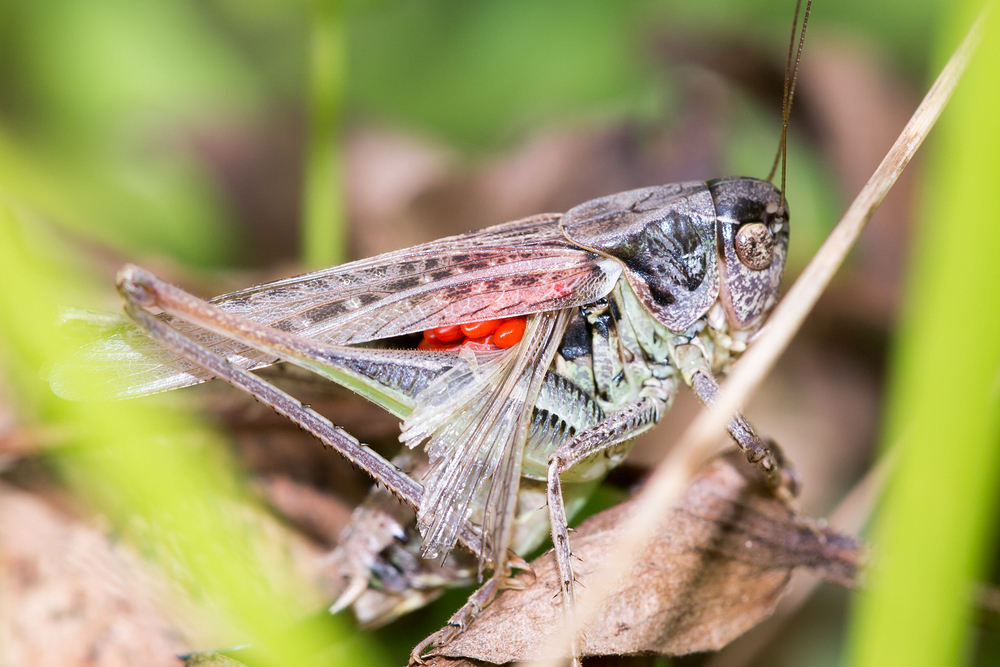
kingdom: Animalia
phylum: Arthropoda
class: Insecta
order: Orthoptera
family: Tettigoniidae
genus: Platycleis
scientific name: Platycleis albopunctata
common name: Grey bush-cricket
